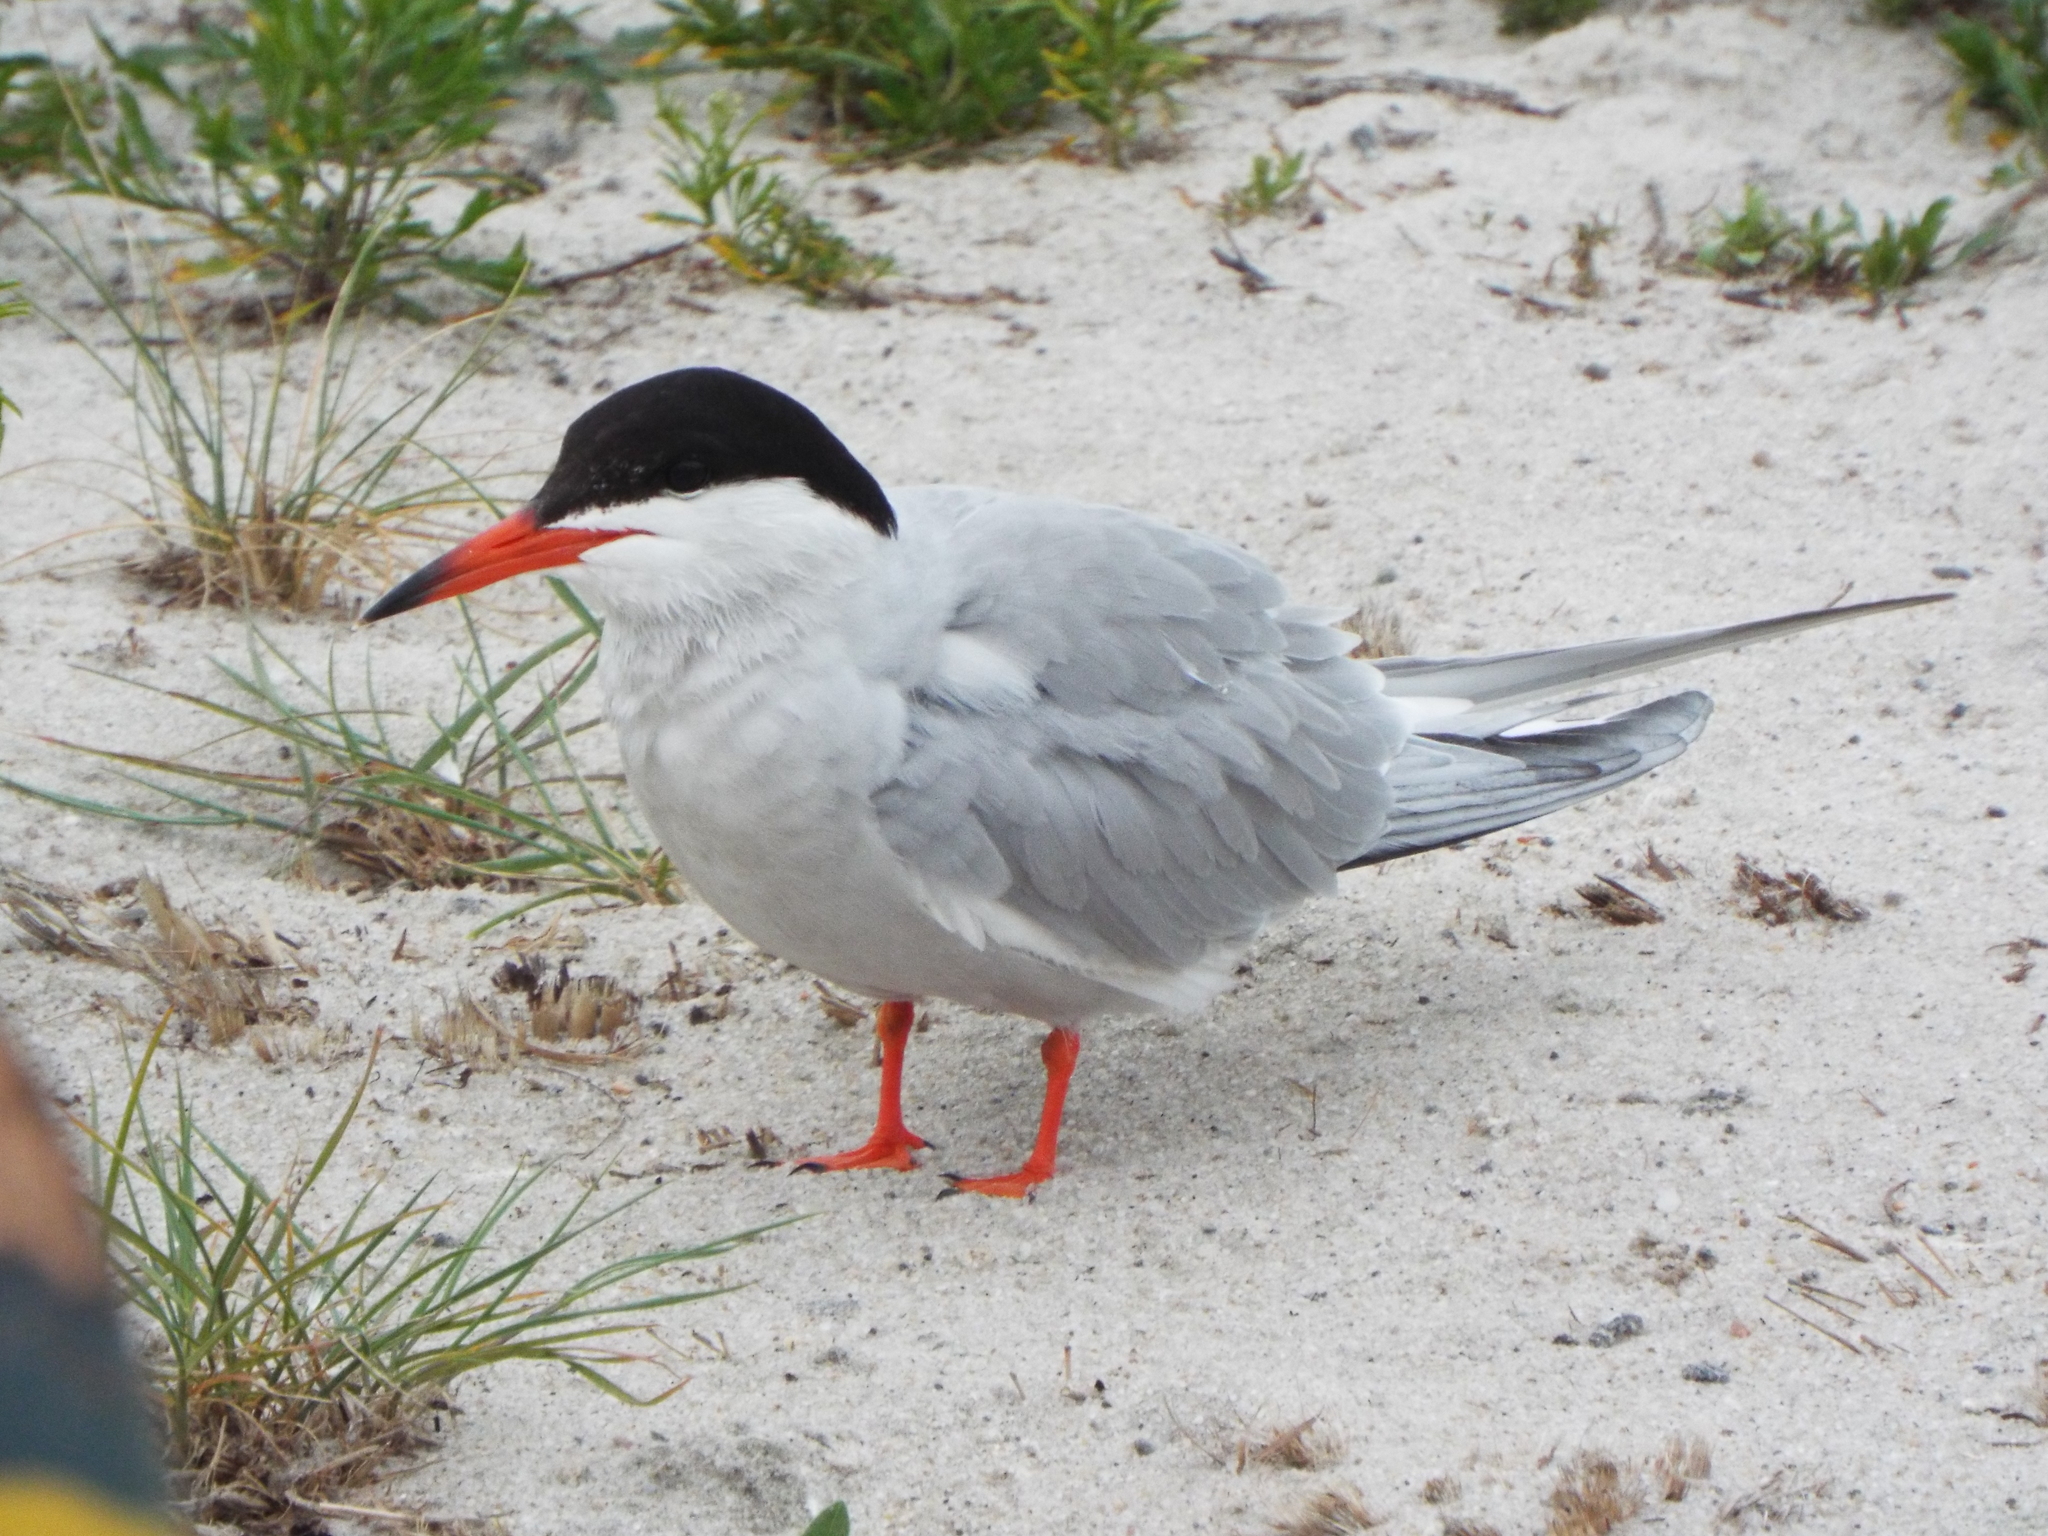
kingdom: Animalia
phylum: Chordata
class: Aves
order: Charadriiformes
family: Laridae
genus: Sterna
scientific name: Sterna hirundo
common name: Common tern
